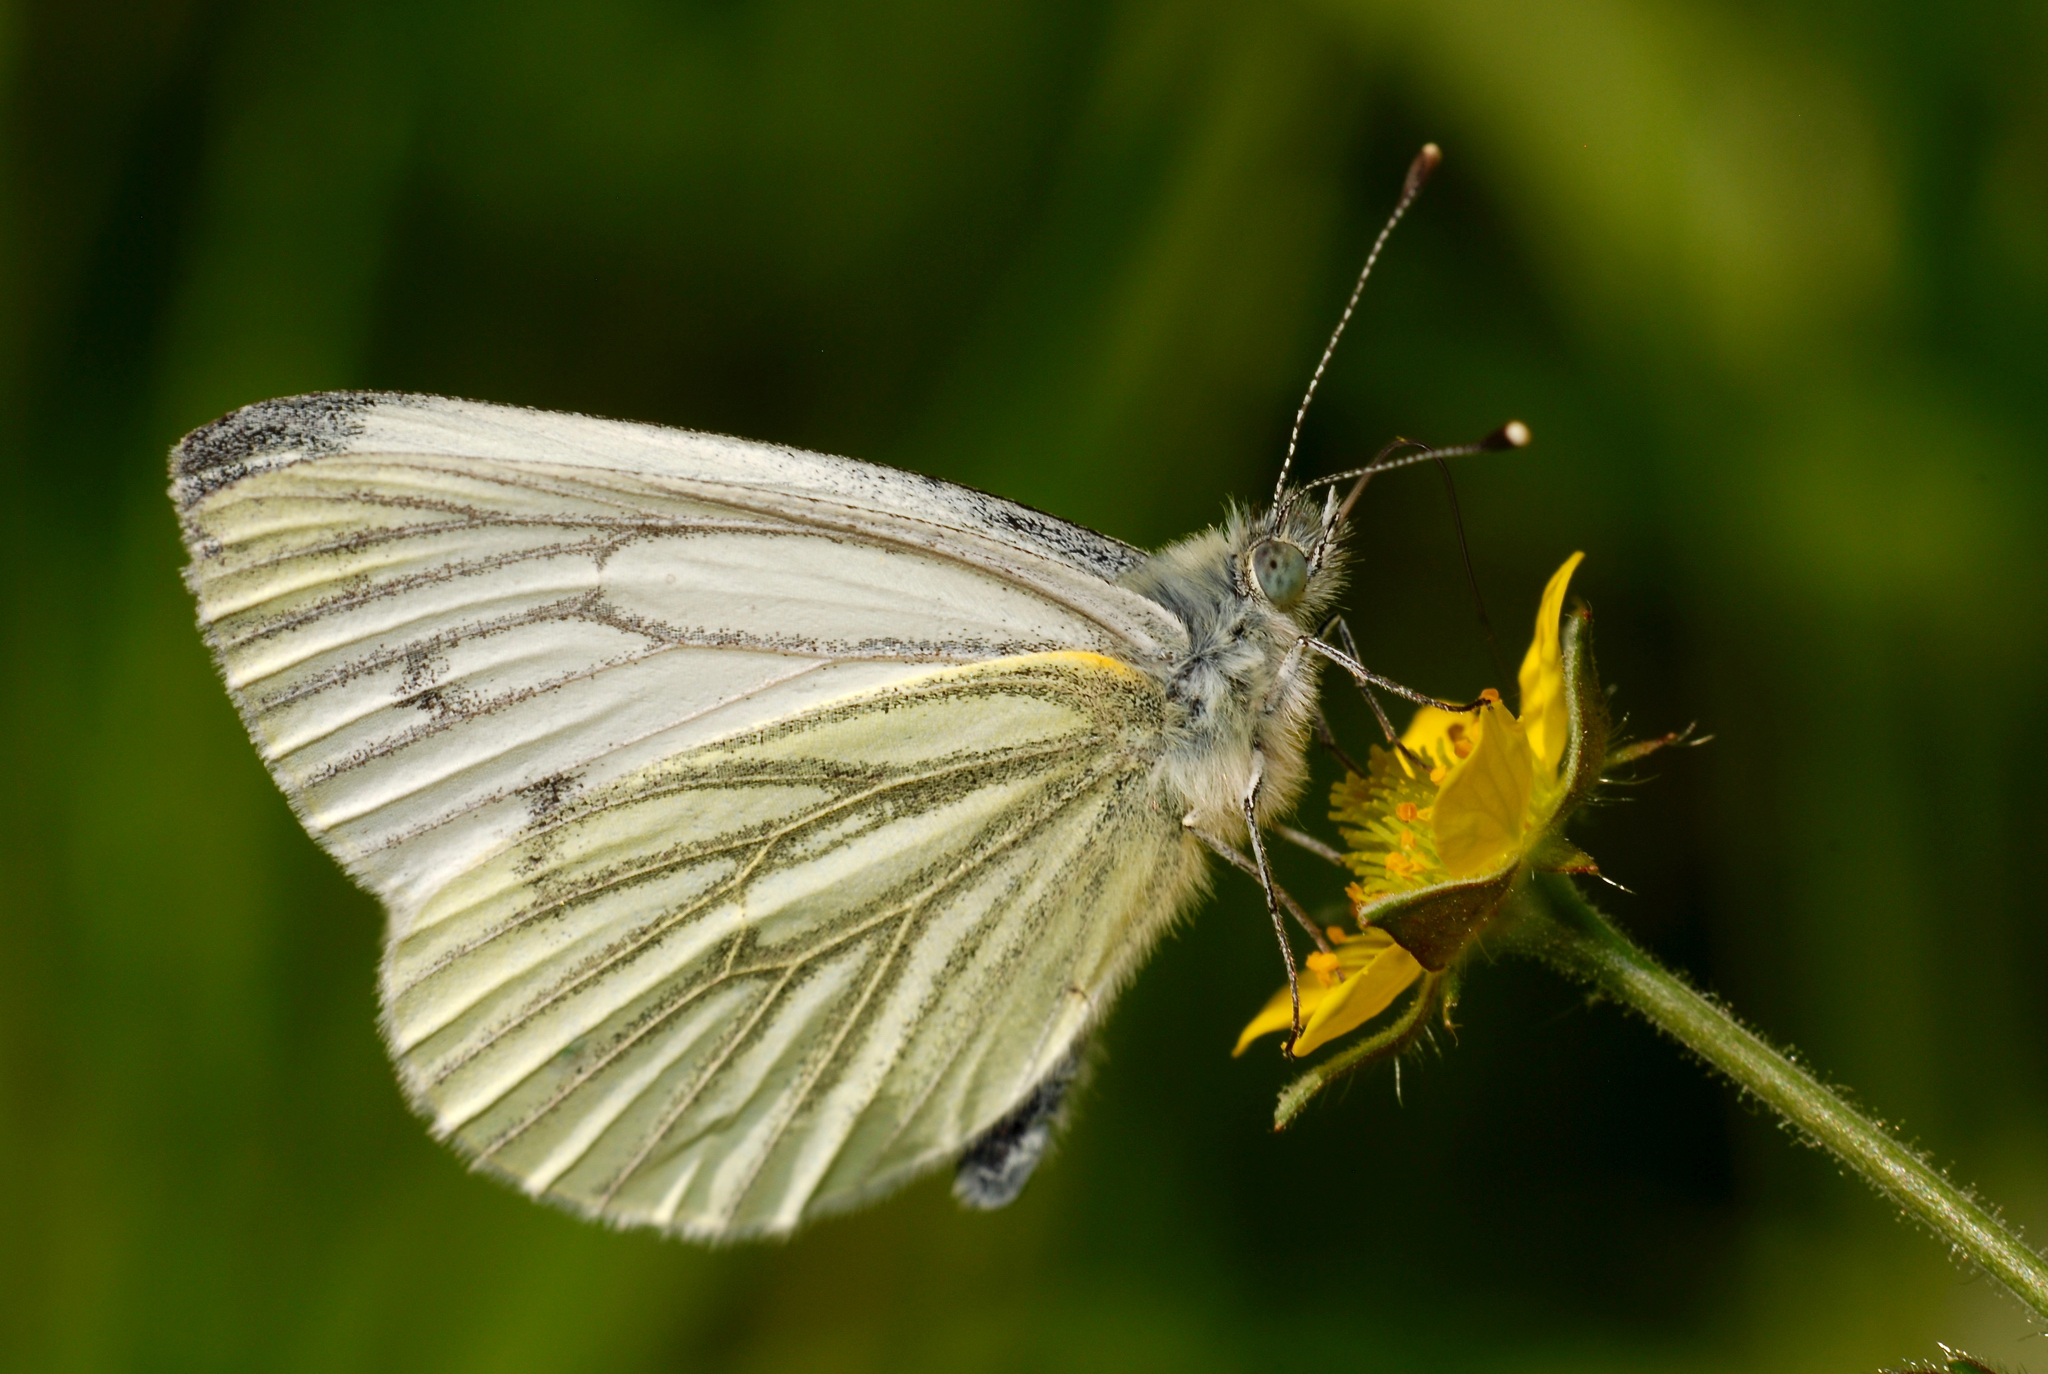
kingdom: Animalia
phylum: Arthropoda
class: Insecta
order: Lepidoptera
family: Pieridae
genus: Pieris
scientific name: Pieris napi
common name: Green-veined white
